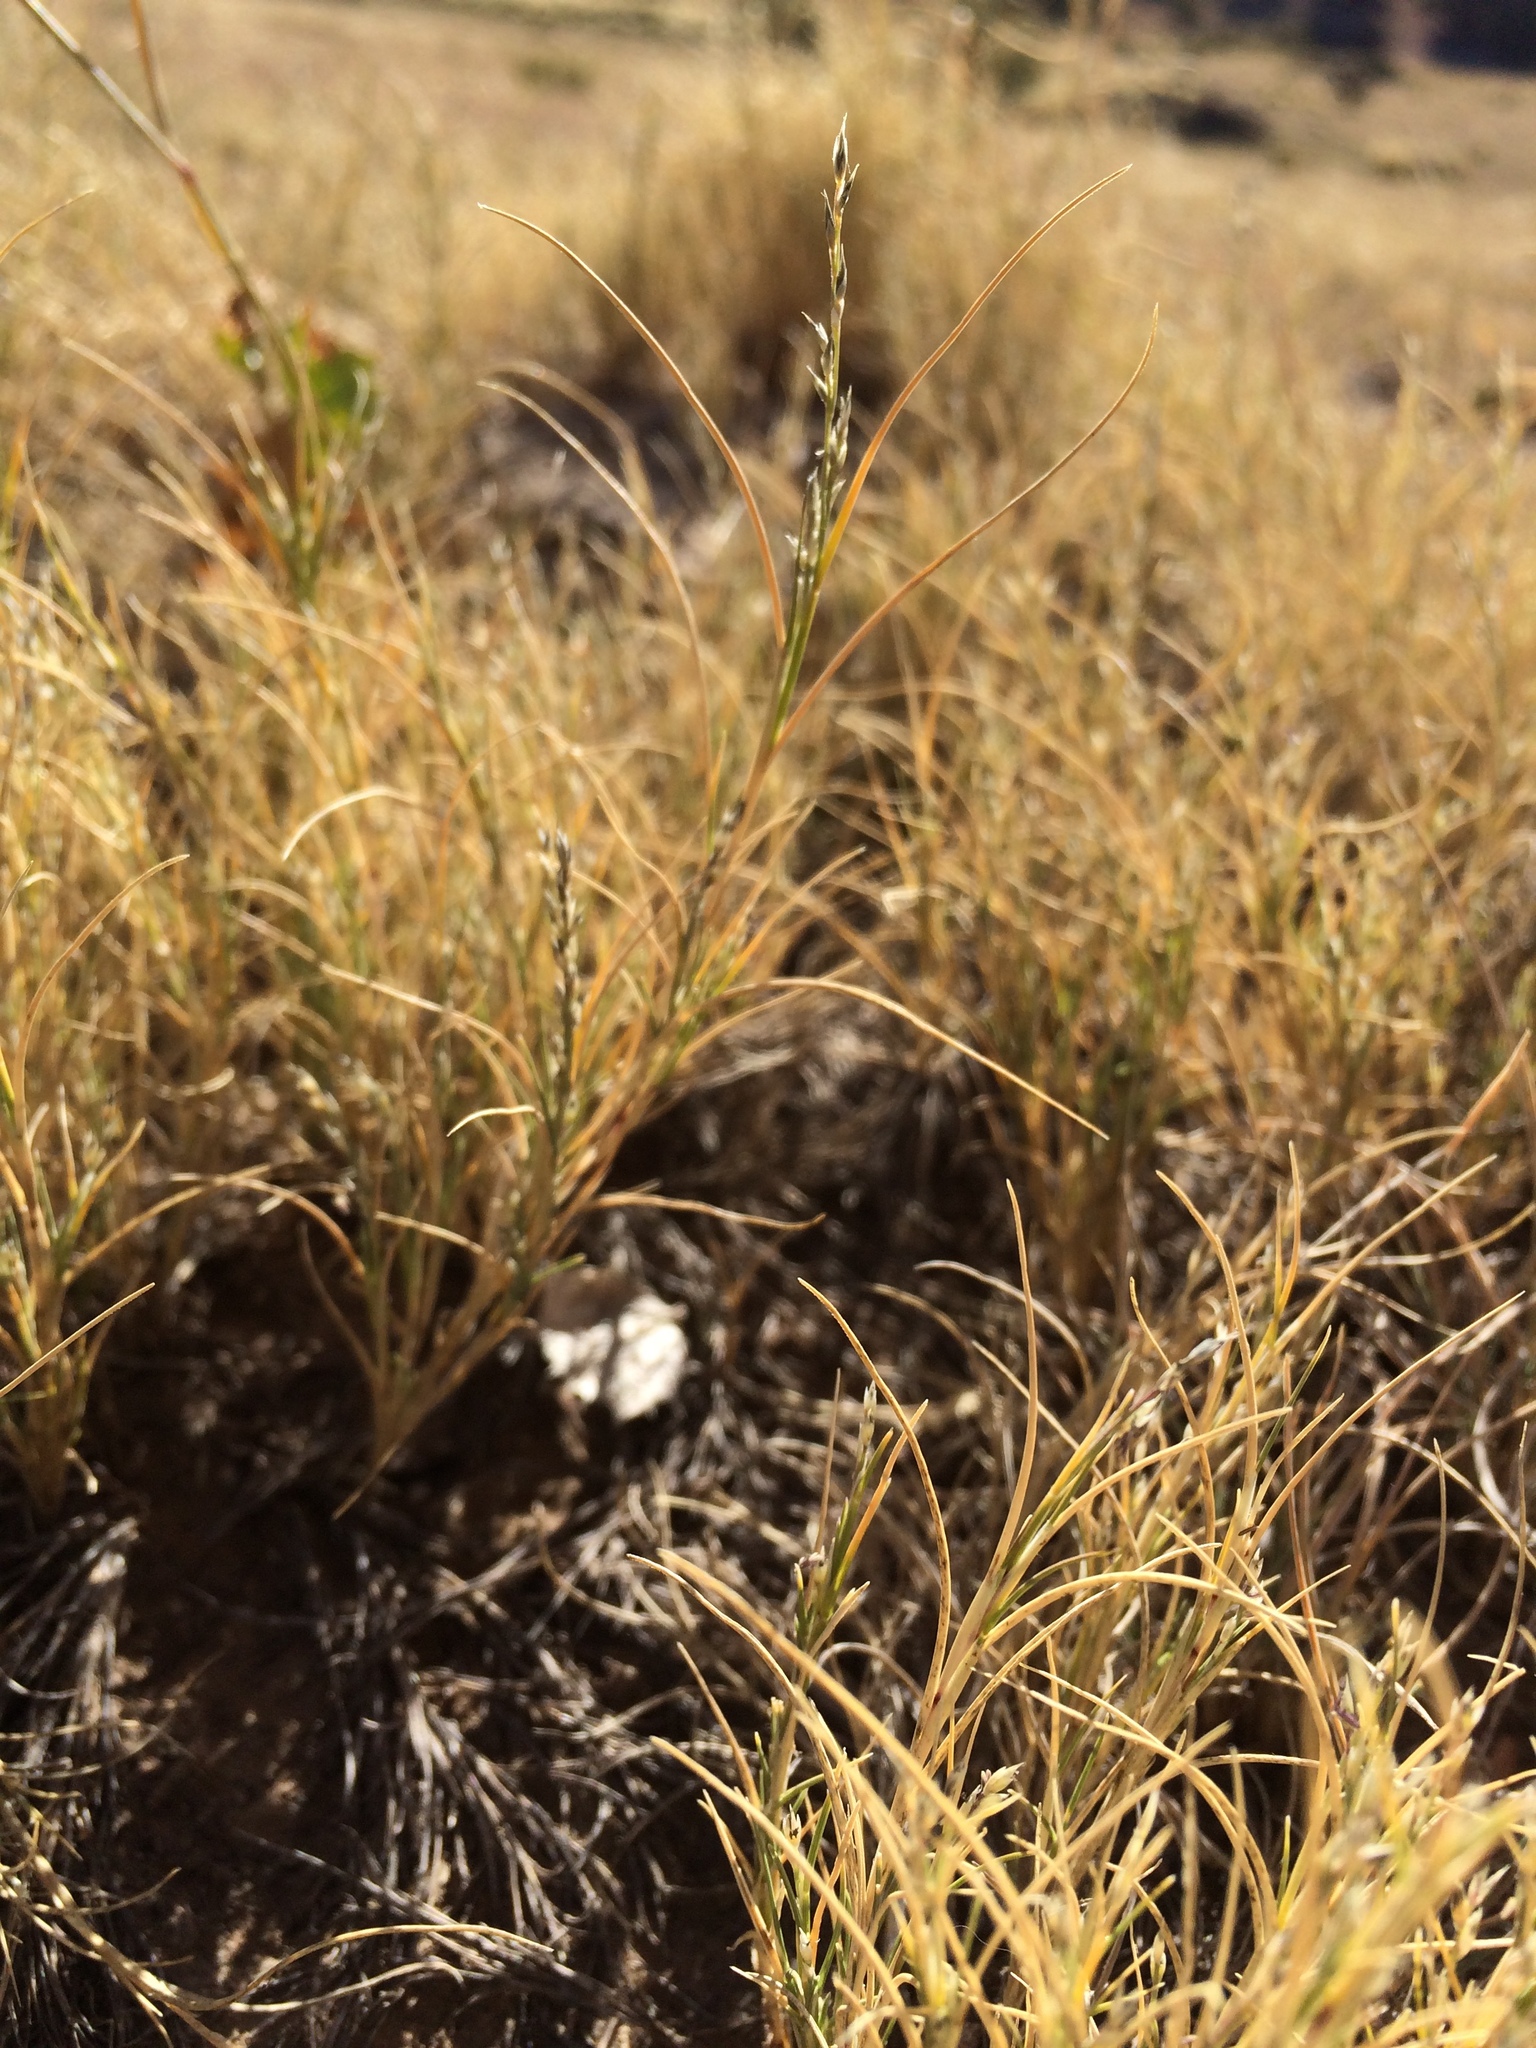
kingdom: Plantae
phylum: Tracheophyta
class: Liliopsida
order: Poales
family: Poaceae
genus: Muhlenbergia
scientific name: Muhlenbergia repens
